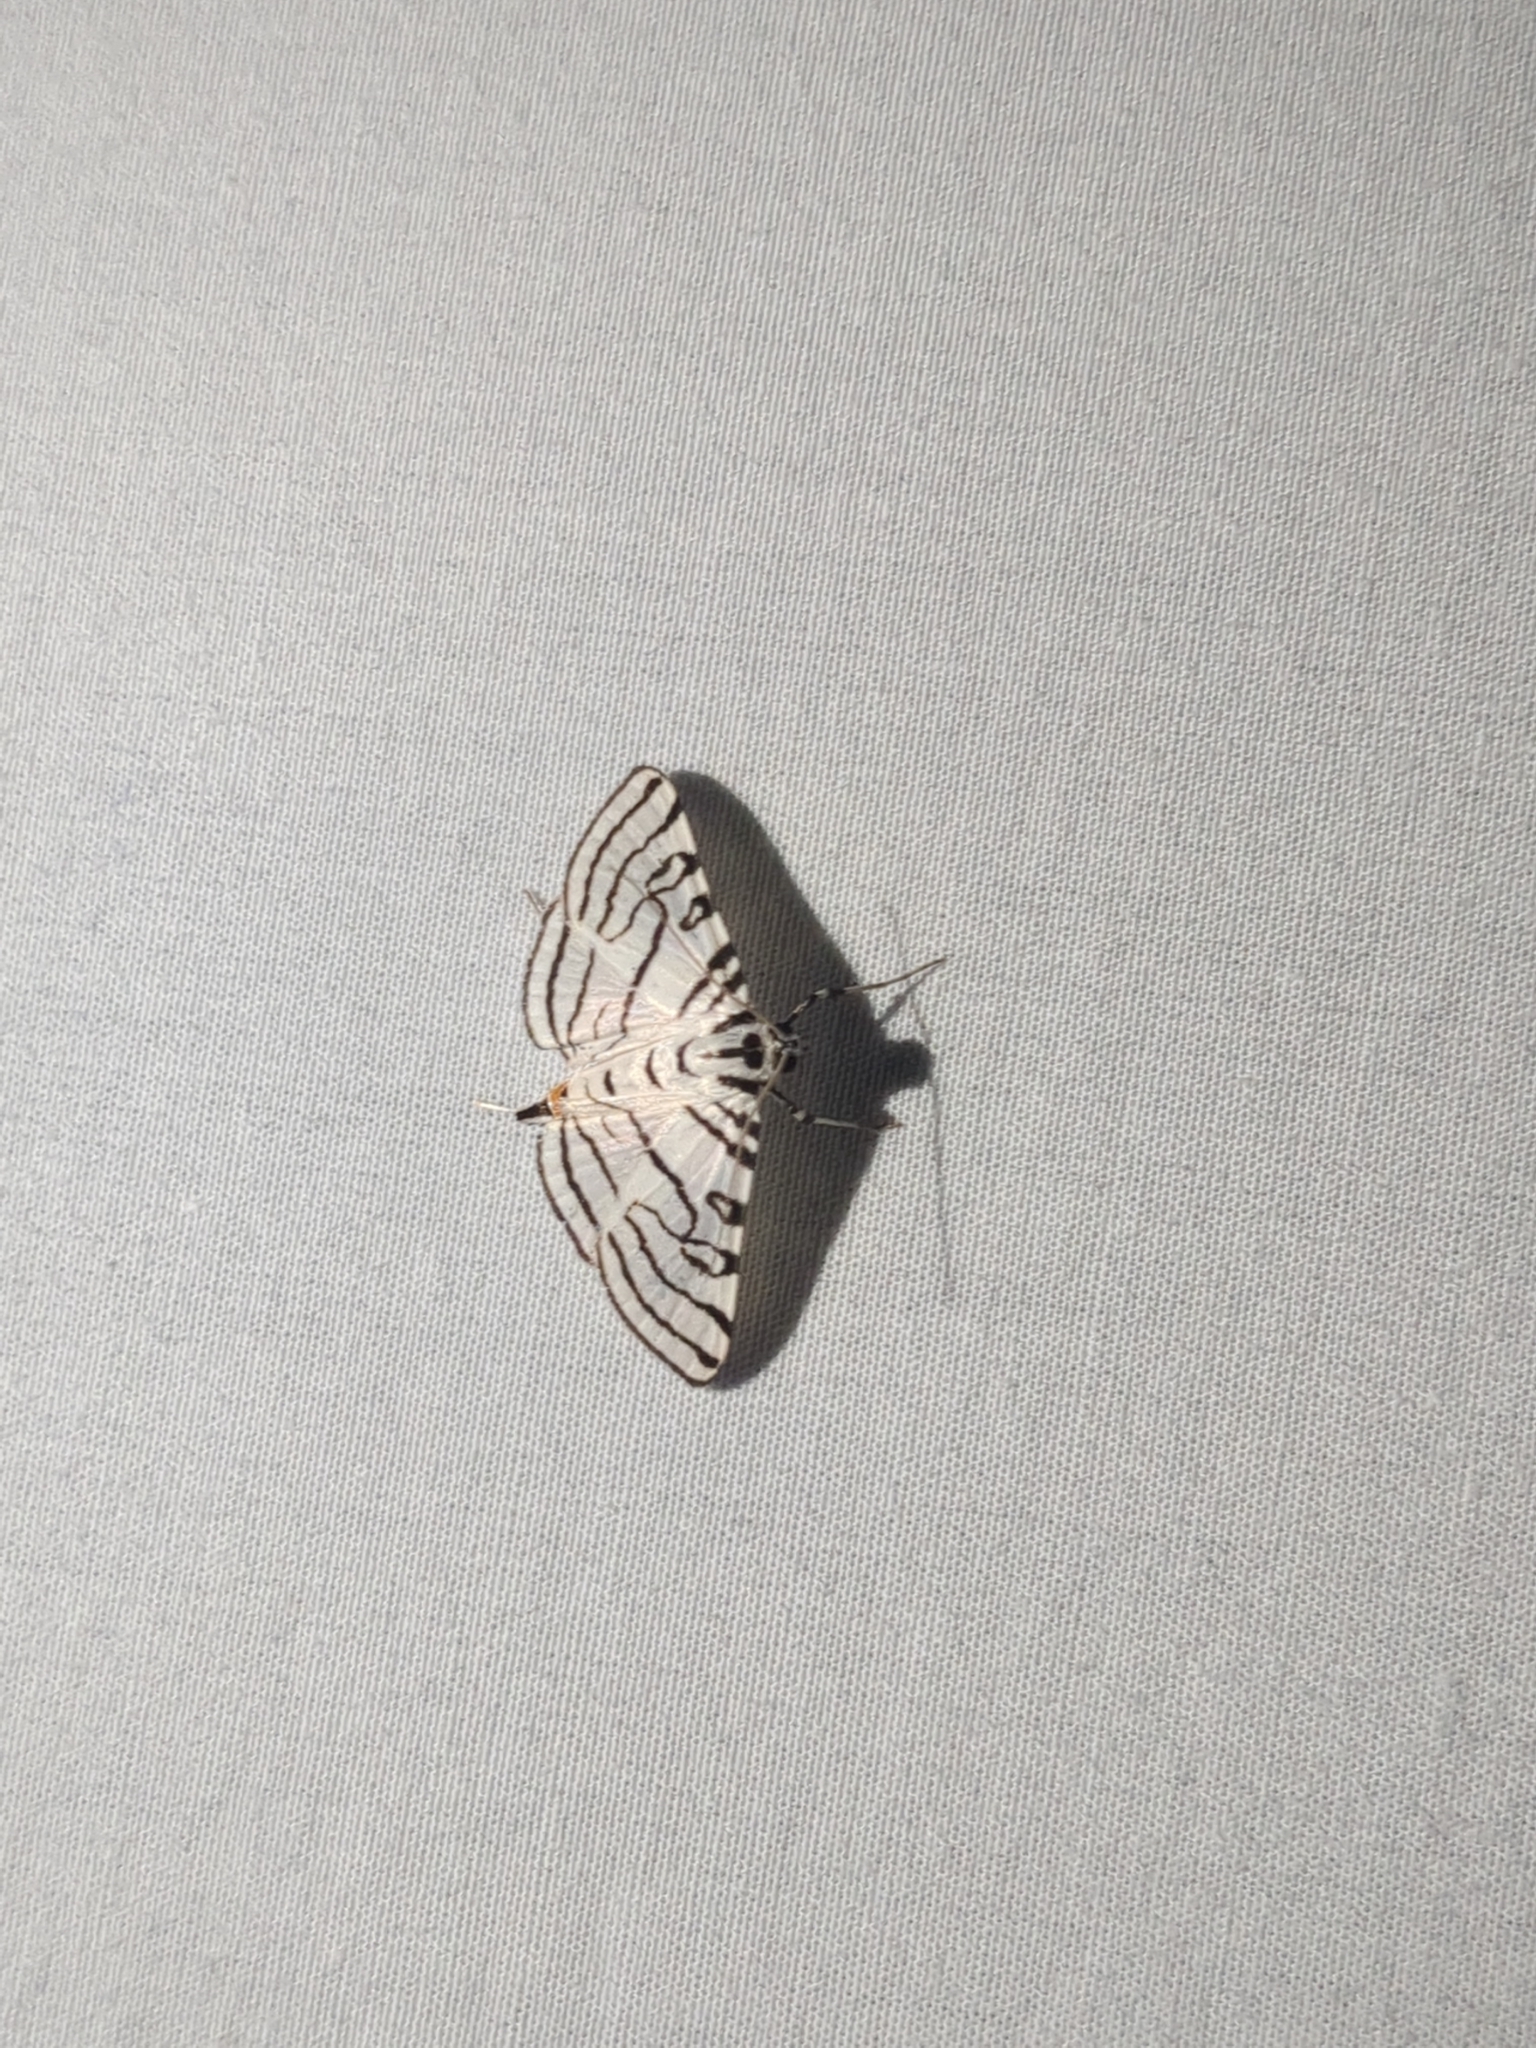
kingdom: Animalia
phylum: Arthropoda
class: Insecta
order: Lepidoptera
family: Crambidae
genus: Conchylodes
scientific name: Conchylodes concinnalis
